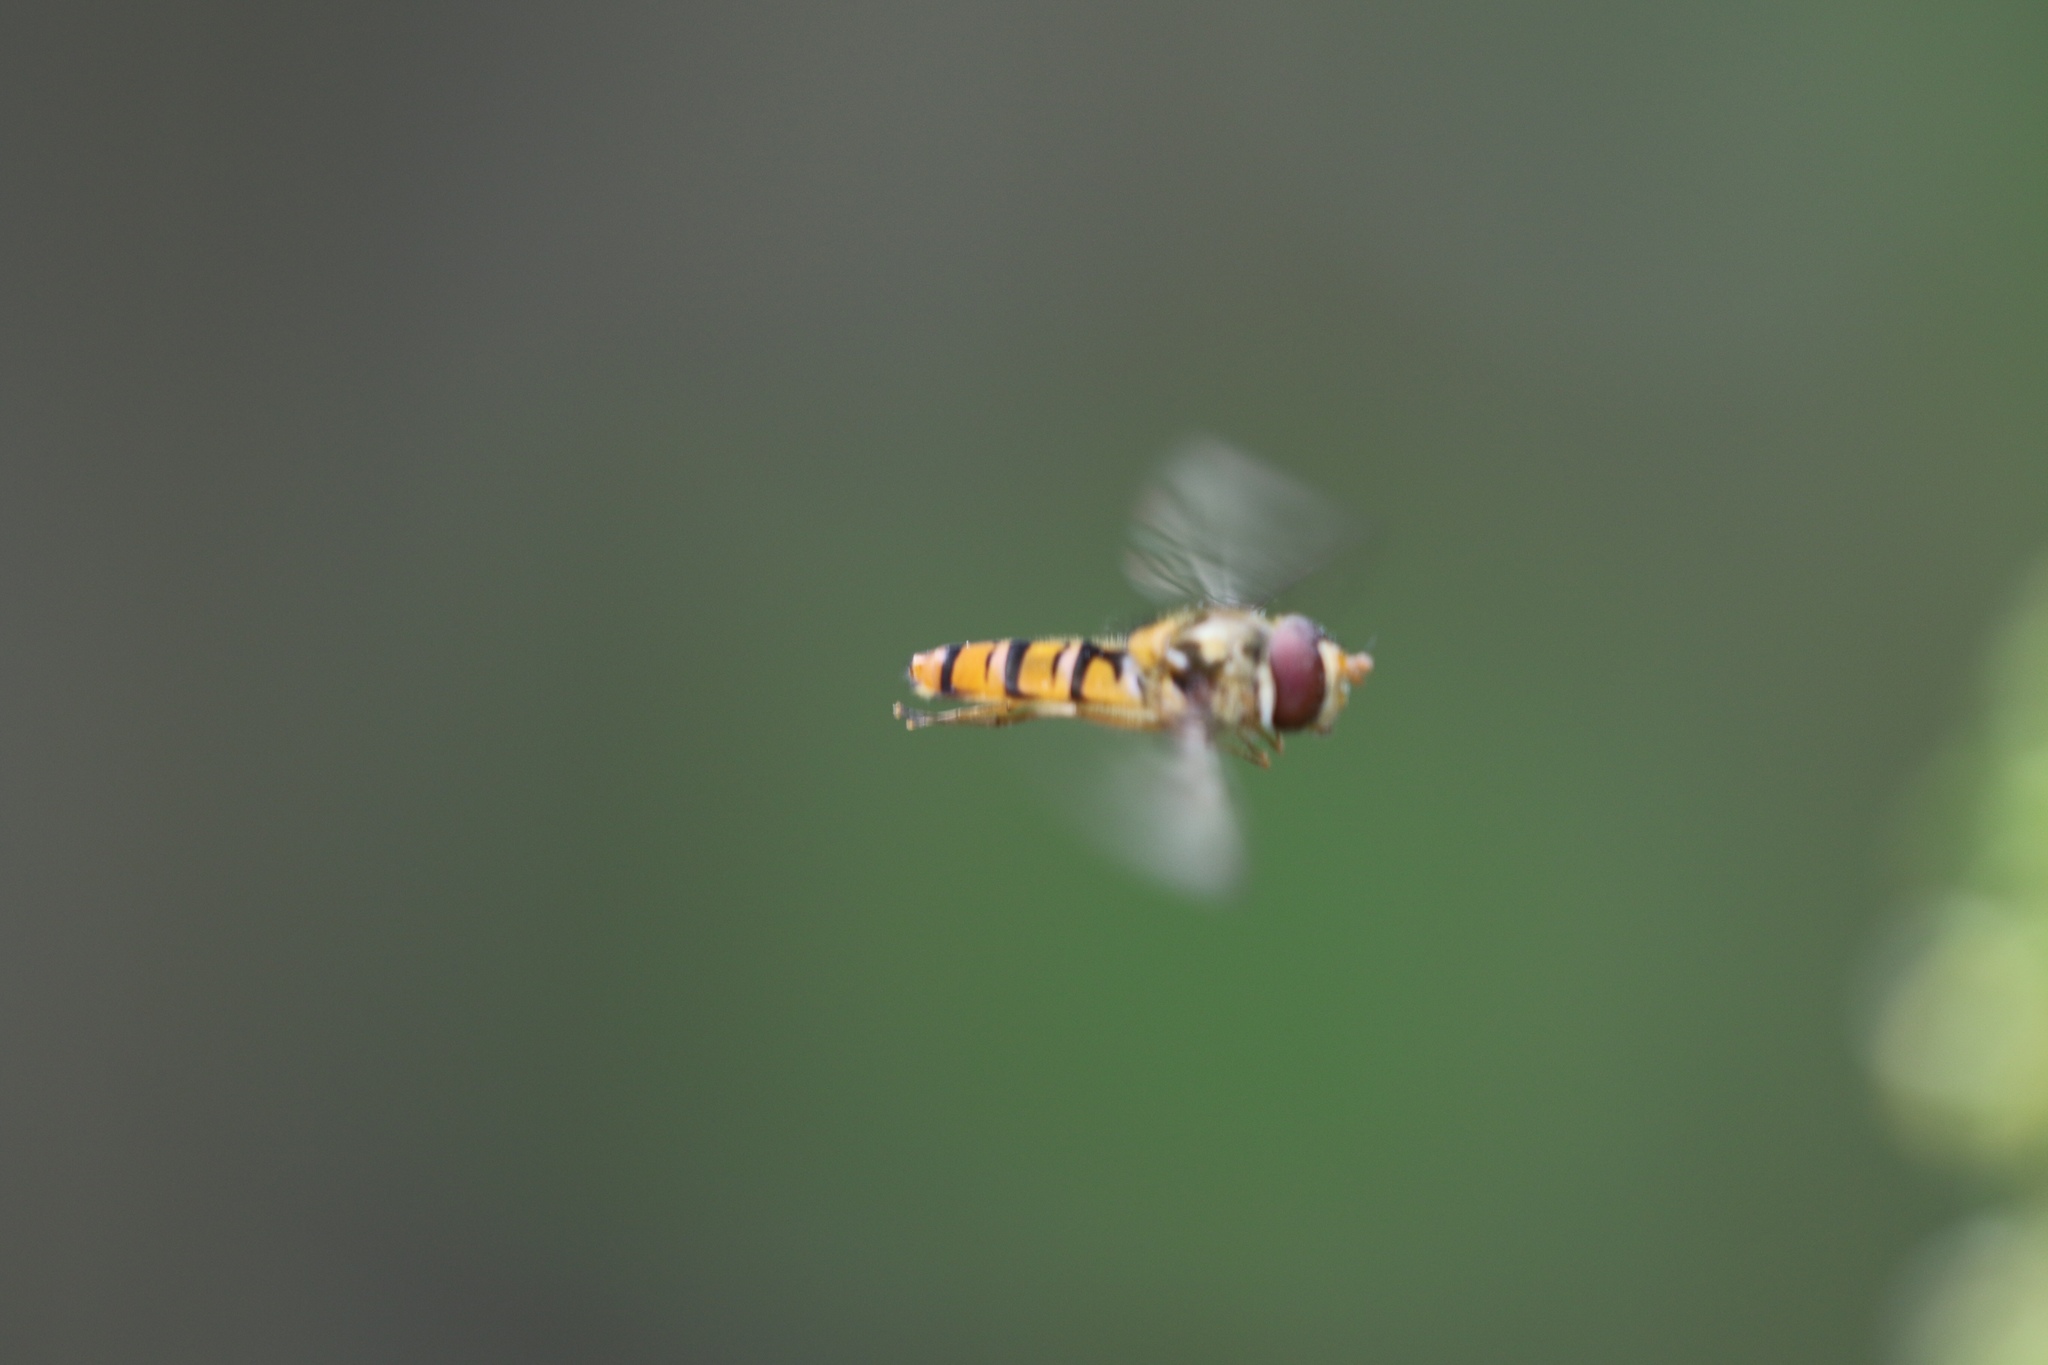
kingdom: Animalia
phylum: Arthropoda
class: Insecta
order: Diptera
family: Syrphidae
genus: Episyrphus
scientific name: Episyrphus balteatus
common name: Marmalade hoverfly
